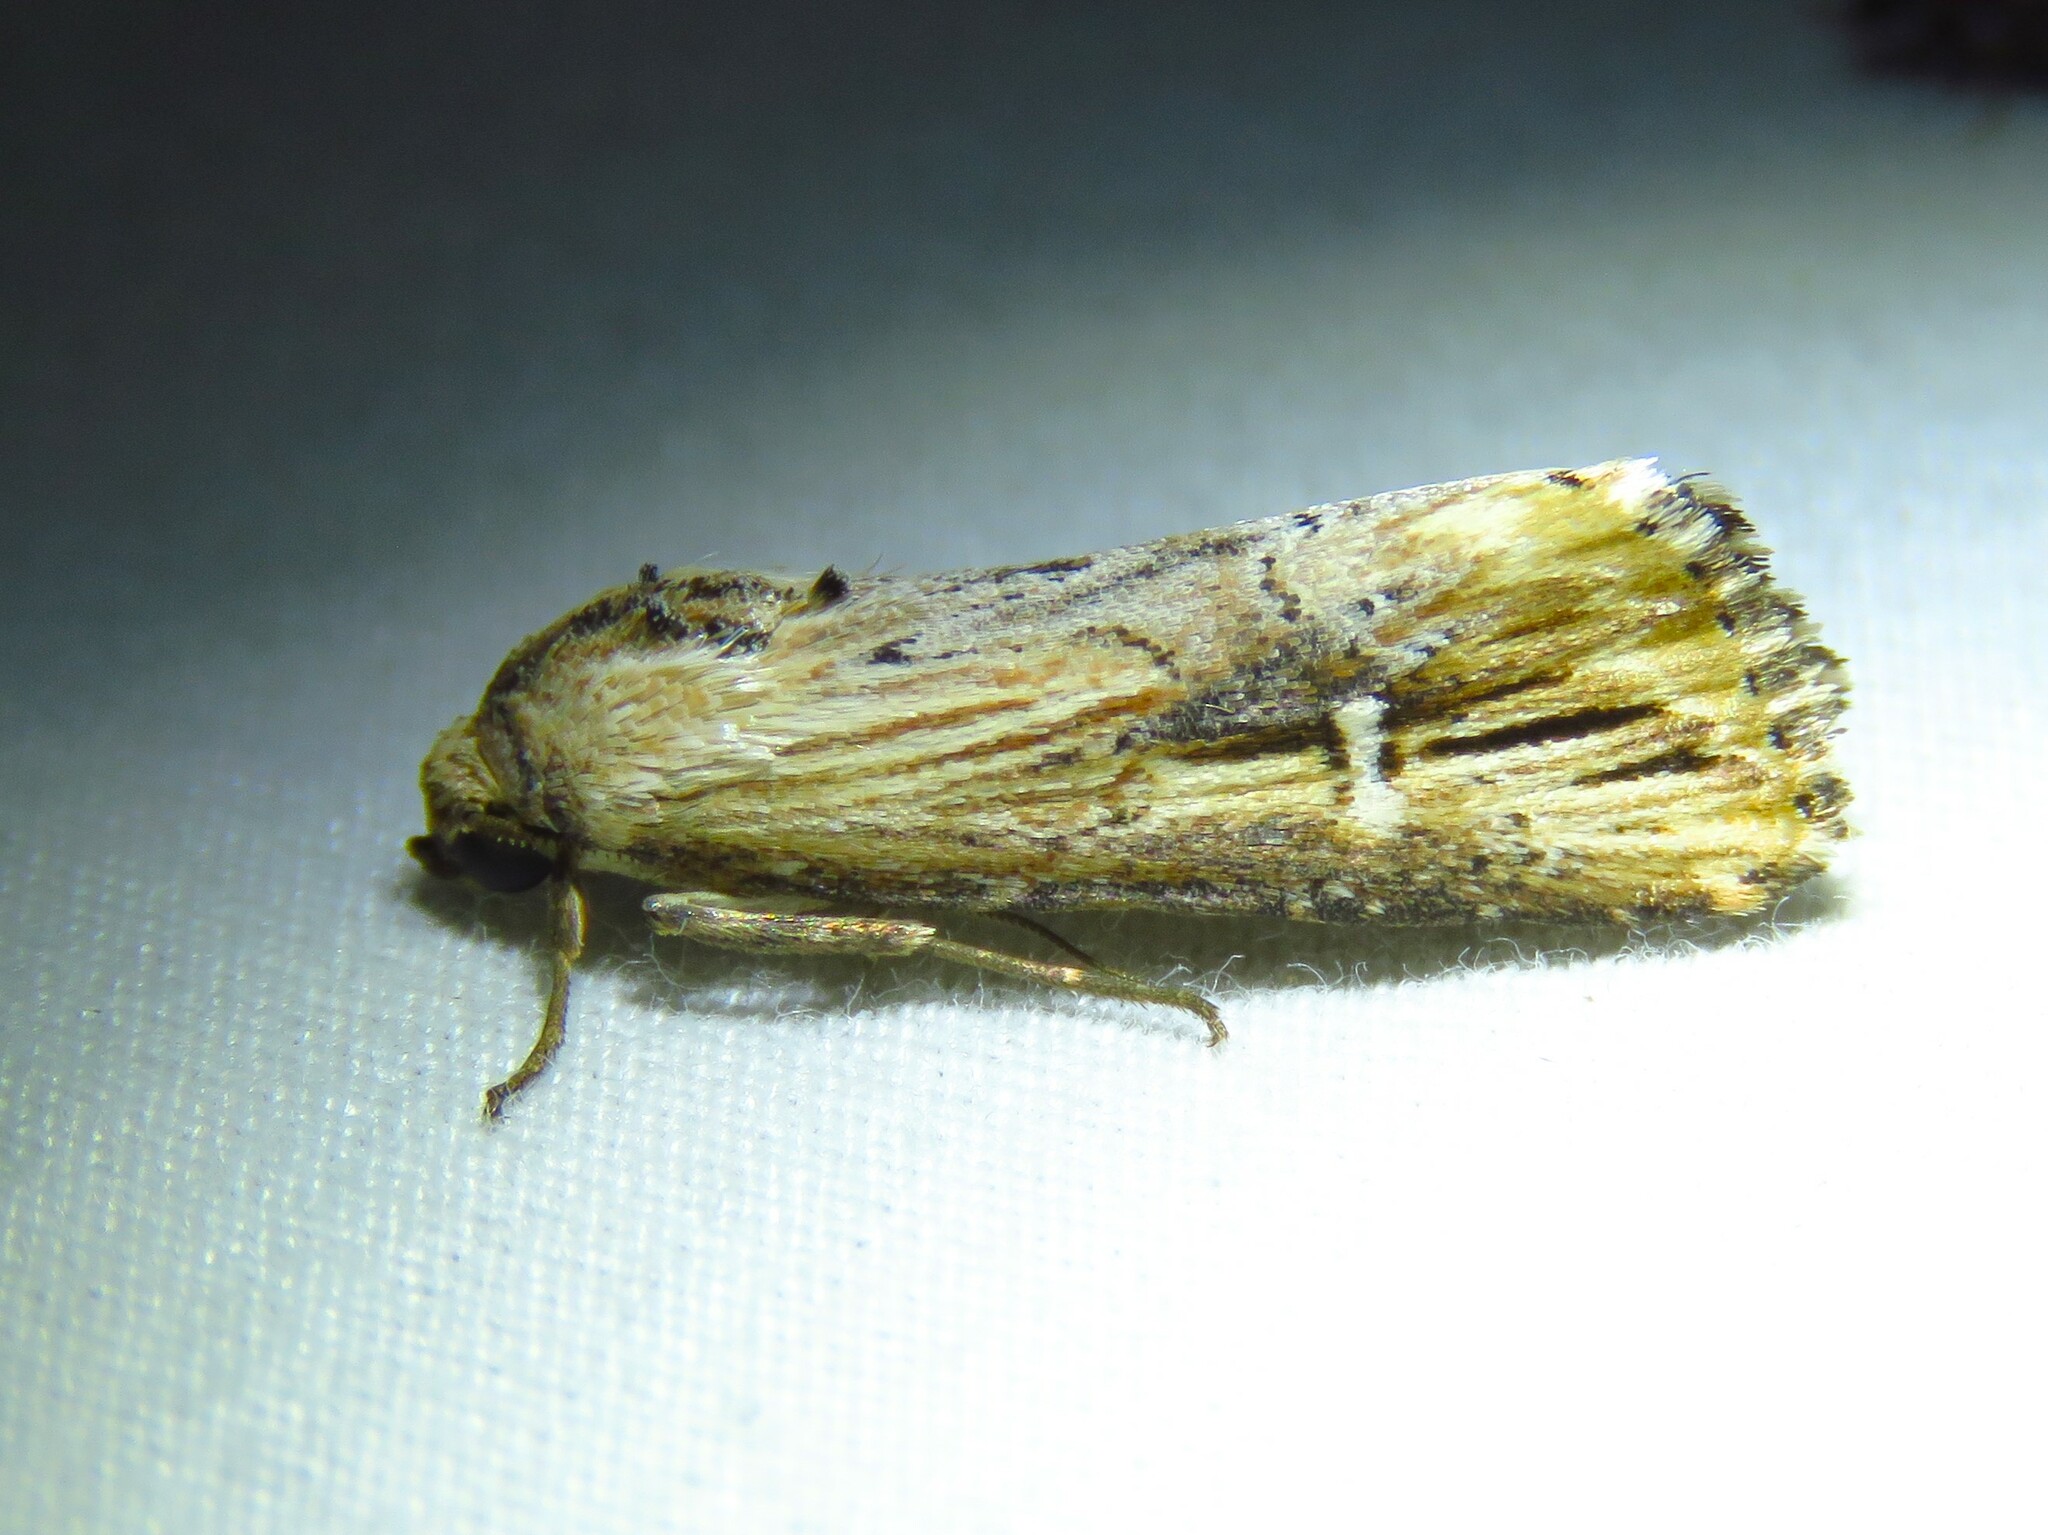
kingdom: Animalia
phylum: Arthropoda
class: Insecta
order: Lepidoptera
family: Noctuidae
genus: Crambodes
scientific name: Crambodes talidiformis
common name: Verbena moth
